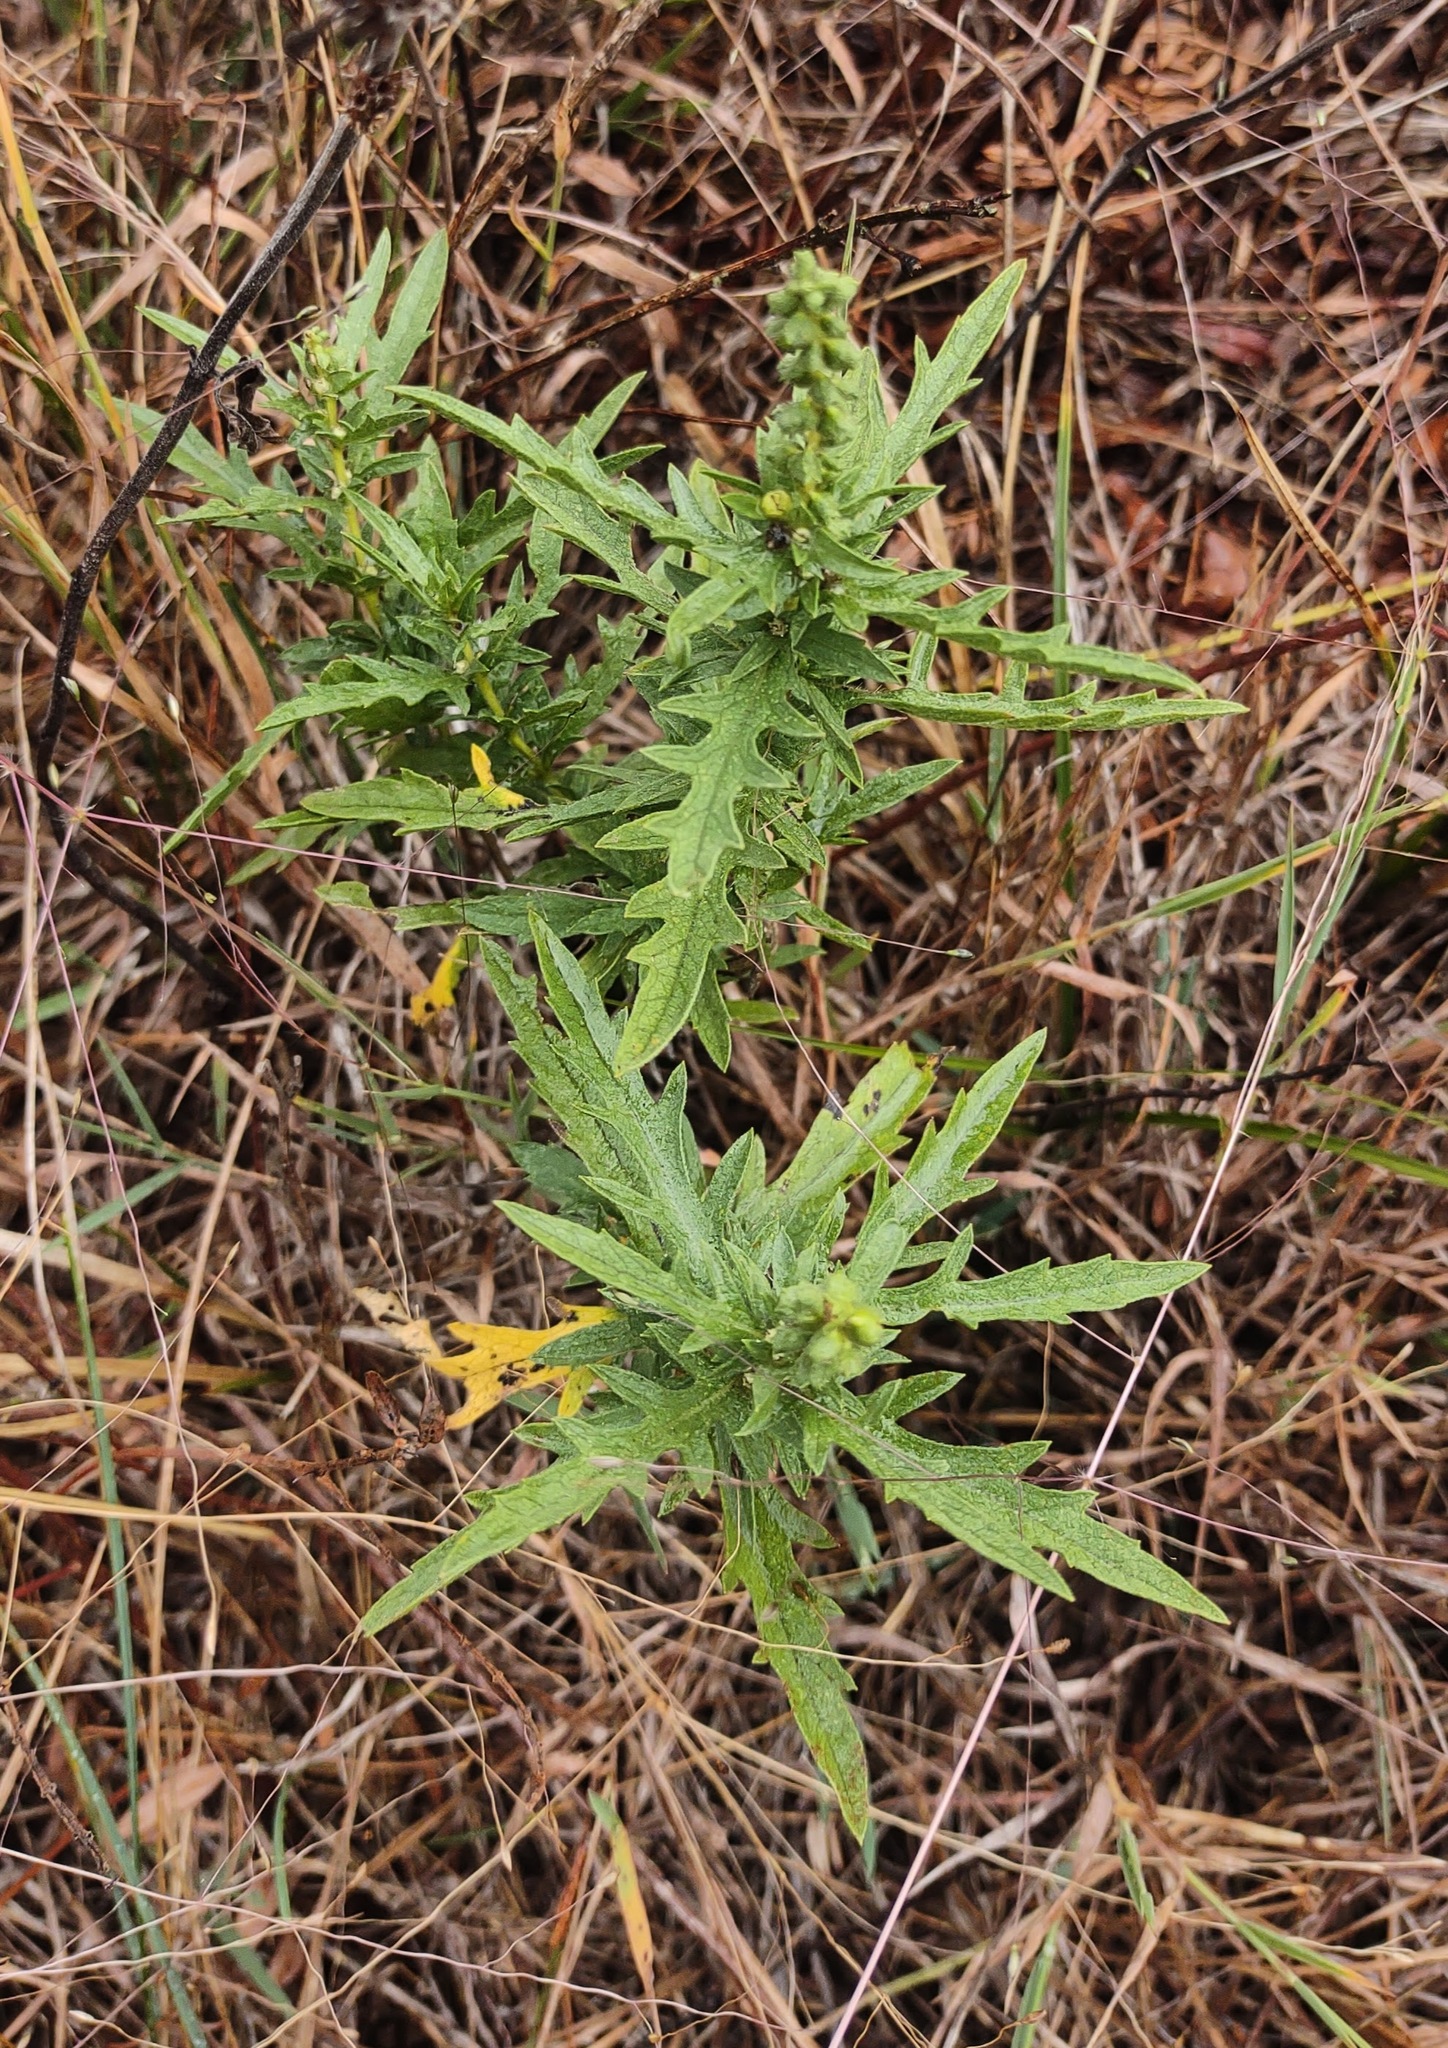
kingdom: Plantae
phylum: Tracheophyta
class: Magnoliopsida
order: Asterales
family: Asteraceae
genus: Ambrosia
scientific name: Ambrosia psilostachya
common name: Perennial ragweed
